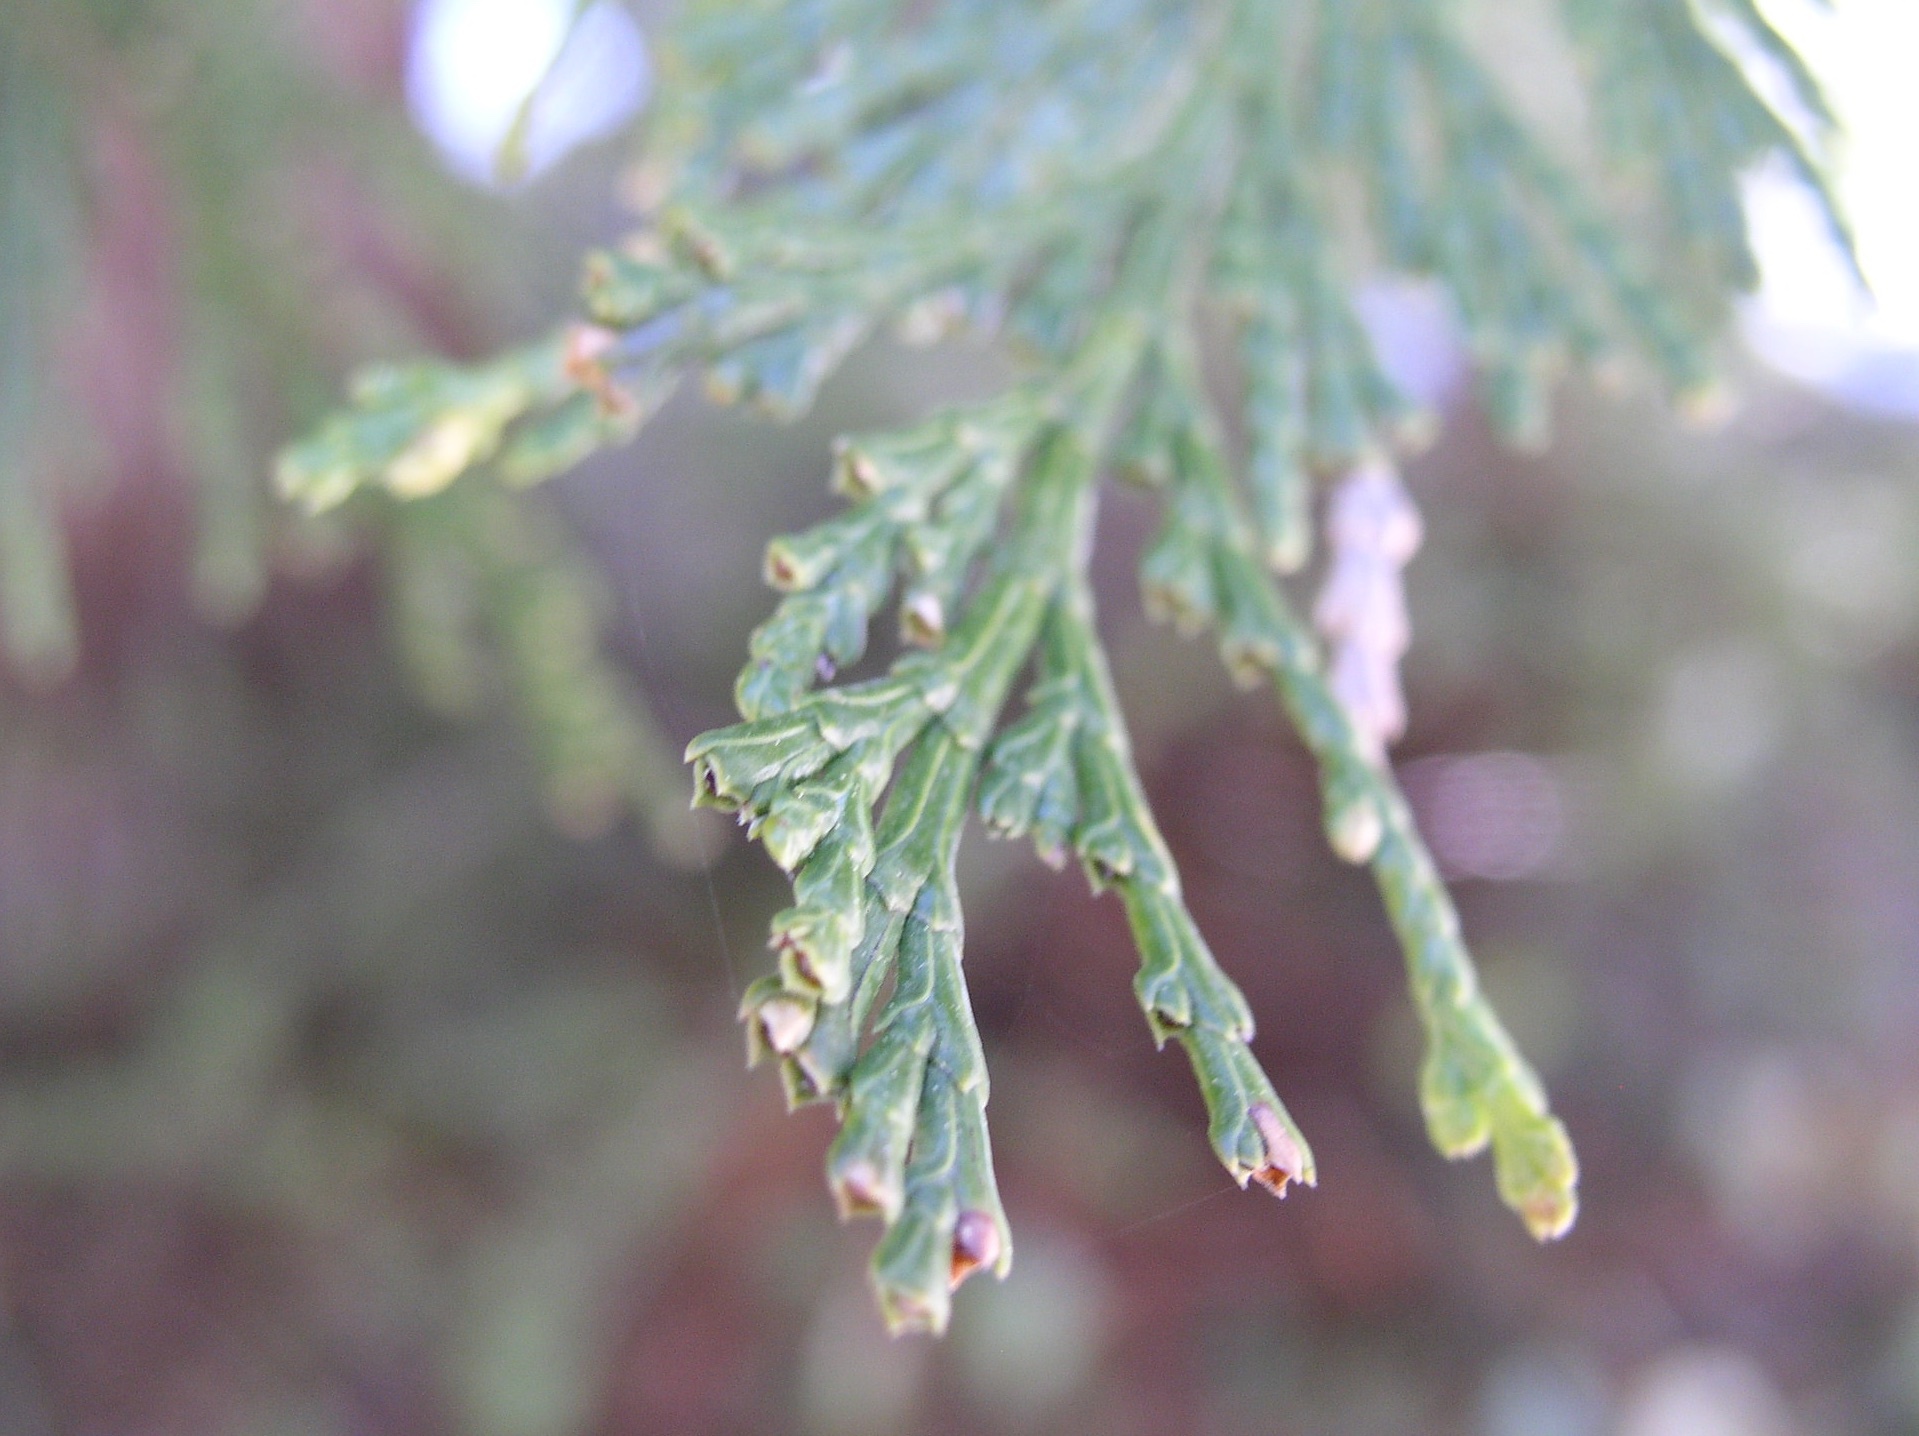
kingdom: Plantae
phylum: Tracheophyta
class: Pinopsida
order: Pinales
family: Cupressaceae
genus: Calocedrus
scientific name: Calocedrus decurrens
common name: Californian incense-cedar
